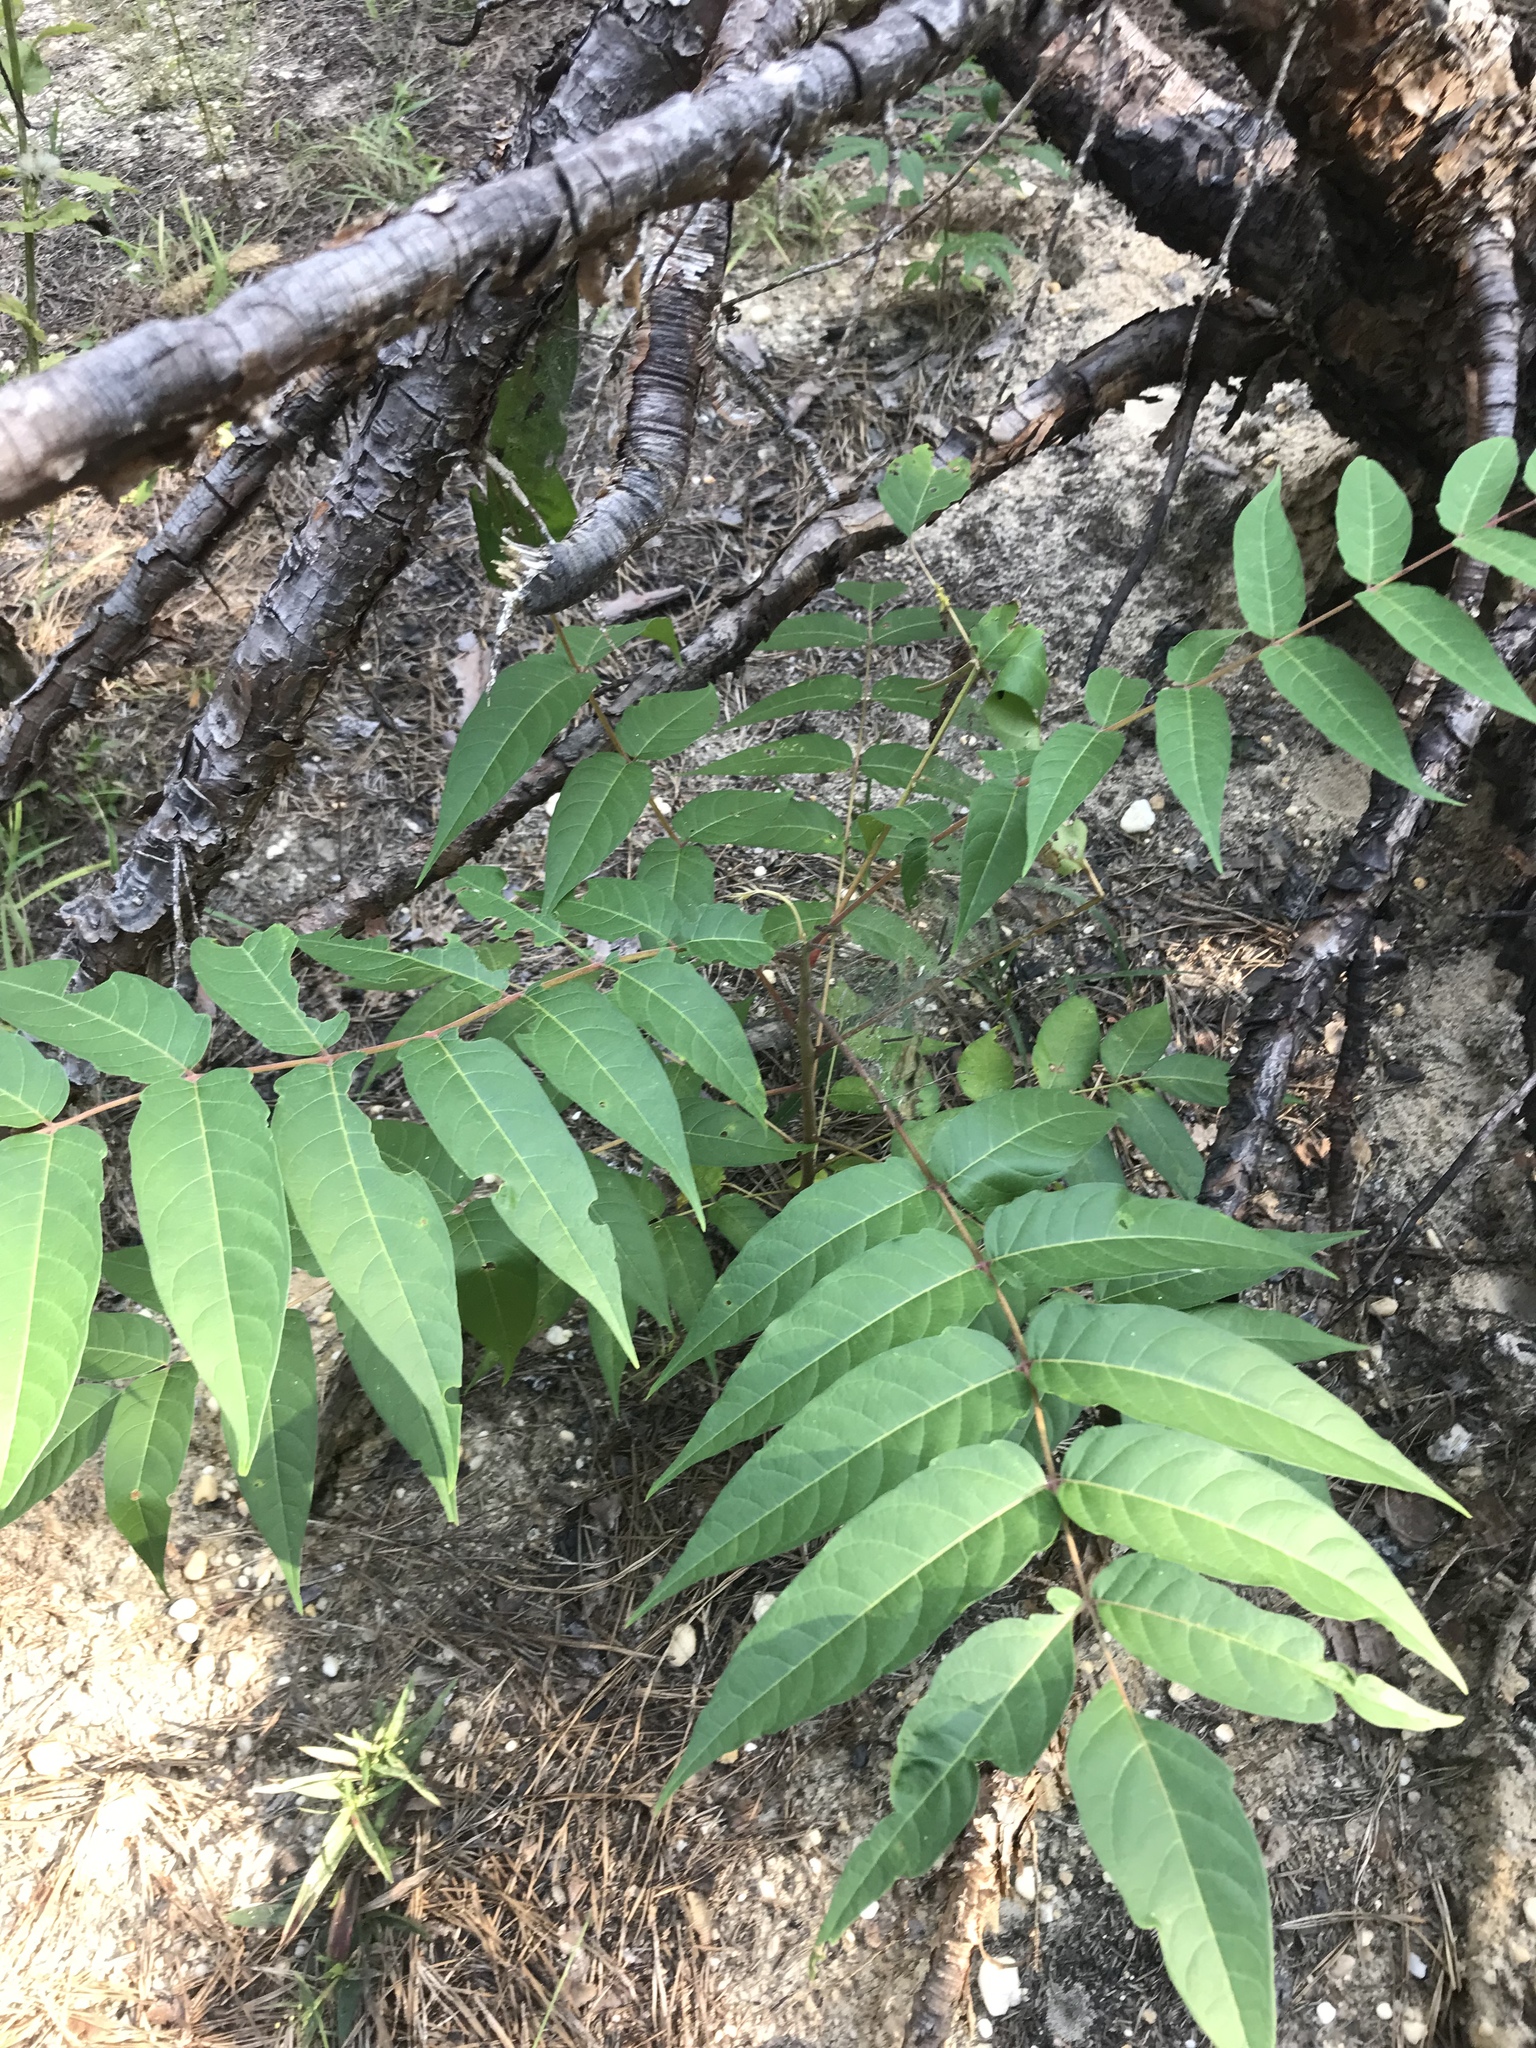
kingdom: Plantae
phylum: Tracheophyta
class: Magnoliopsida
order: Sapindales
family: Simaroubaceae
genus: Ailanthus
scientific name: Ailanthus altissima
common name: Tree-of-heaven
